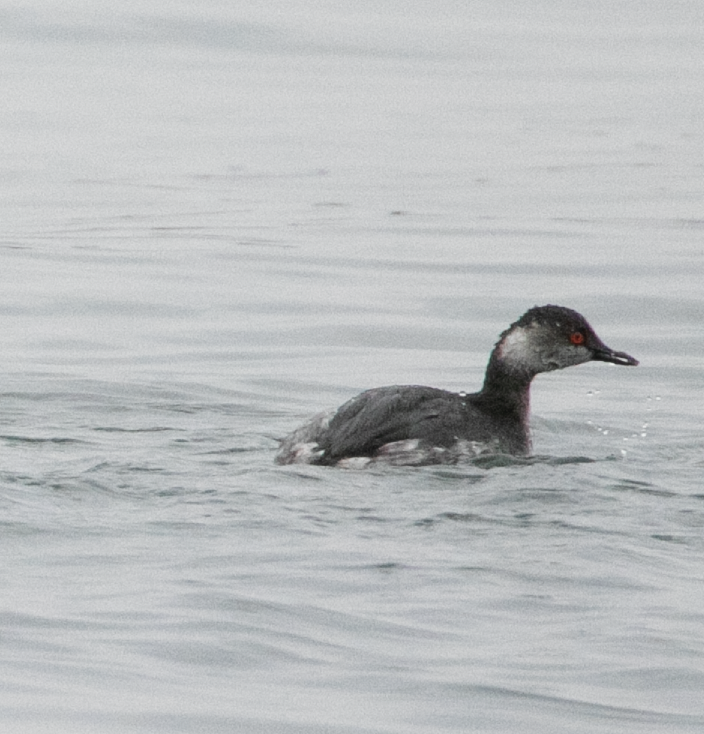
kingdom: Animalia
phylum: Chordata
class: Aves
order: Podicipediformes
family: Podicipedidae
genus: Podiceps
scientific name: Podiceps nigricollis
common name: Black-necked grebe
